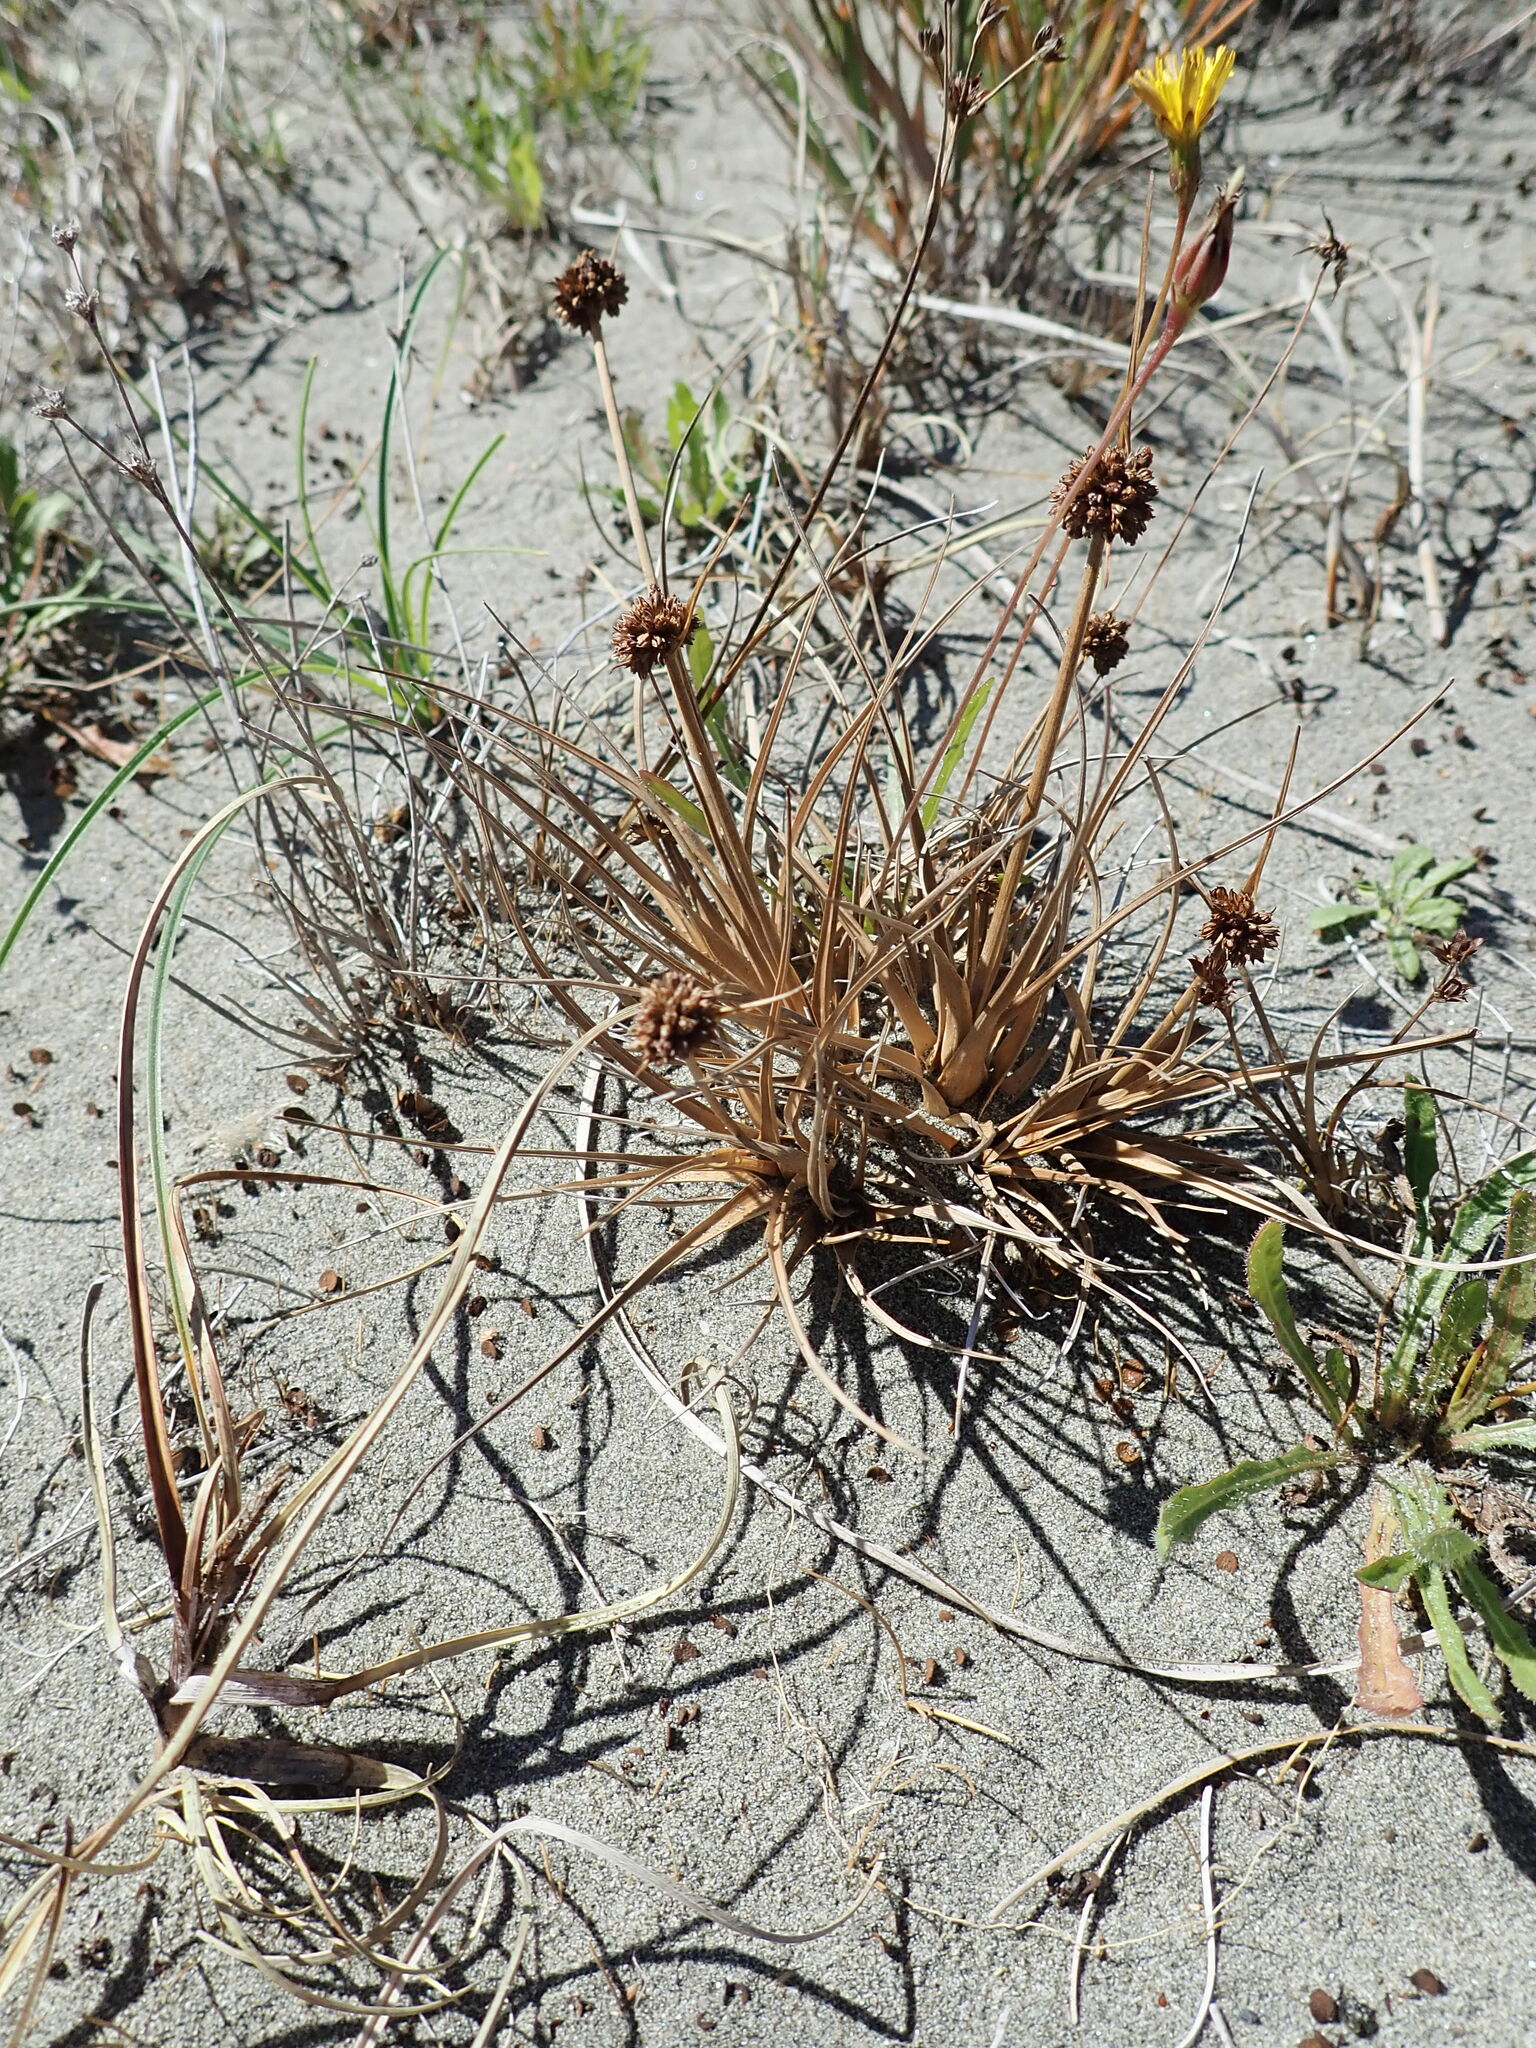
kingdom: Plantae
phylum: Tracheophyta
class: Liliopsida
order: Poales
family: Juncaceae
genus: Juncus
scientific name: Juncus caespiticius
